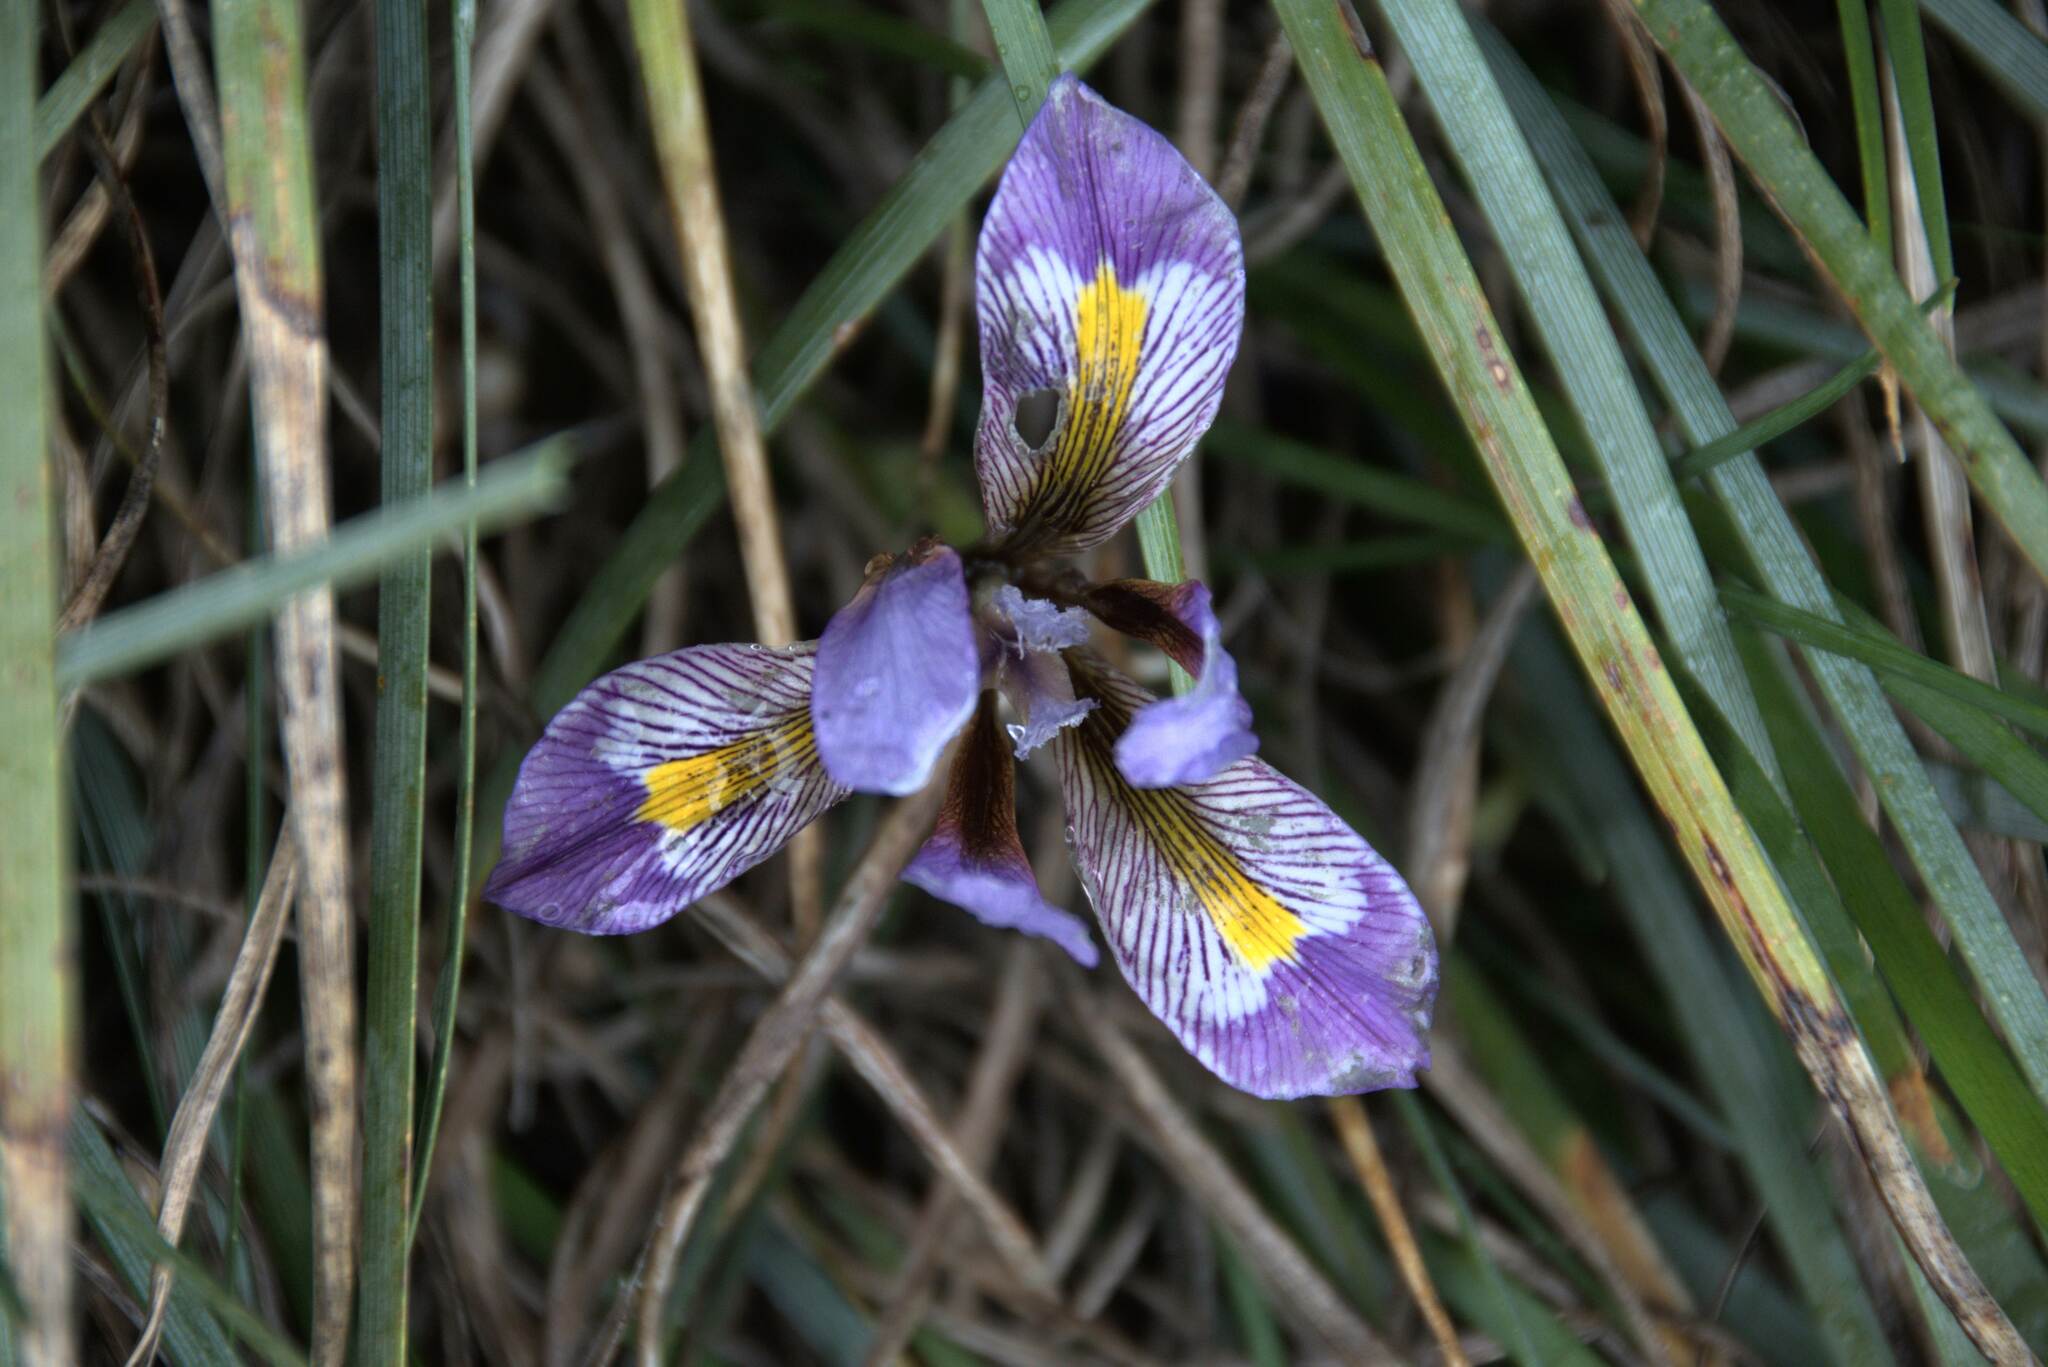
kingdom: Plantae
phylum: Tracheophyta
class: Liliopsida
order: Asparagales
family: Iridaceae
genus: Iris
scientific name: Iris unguicularis
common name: Algerian iris
